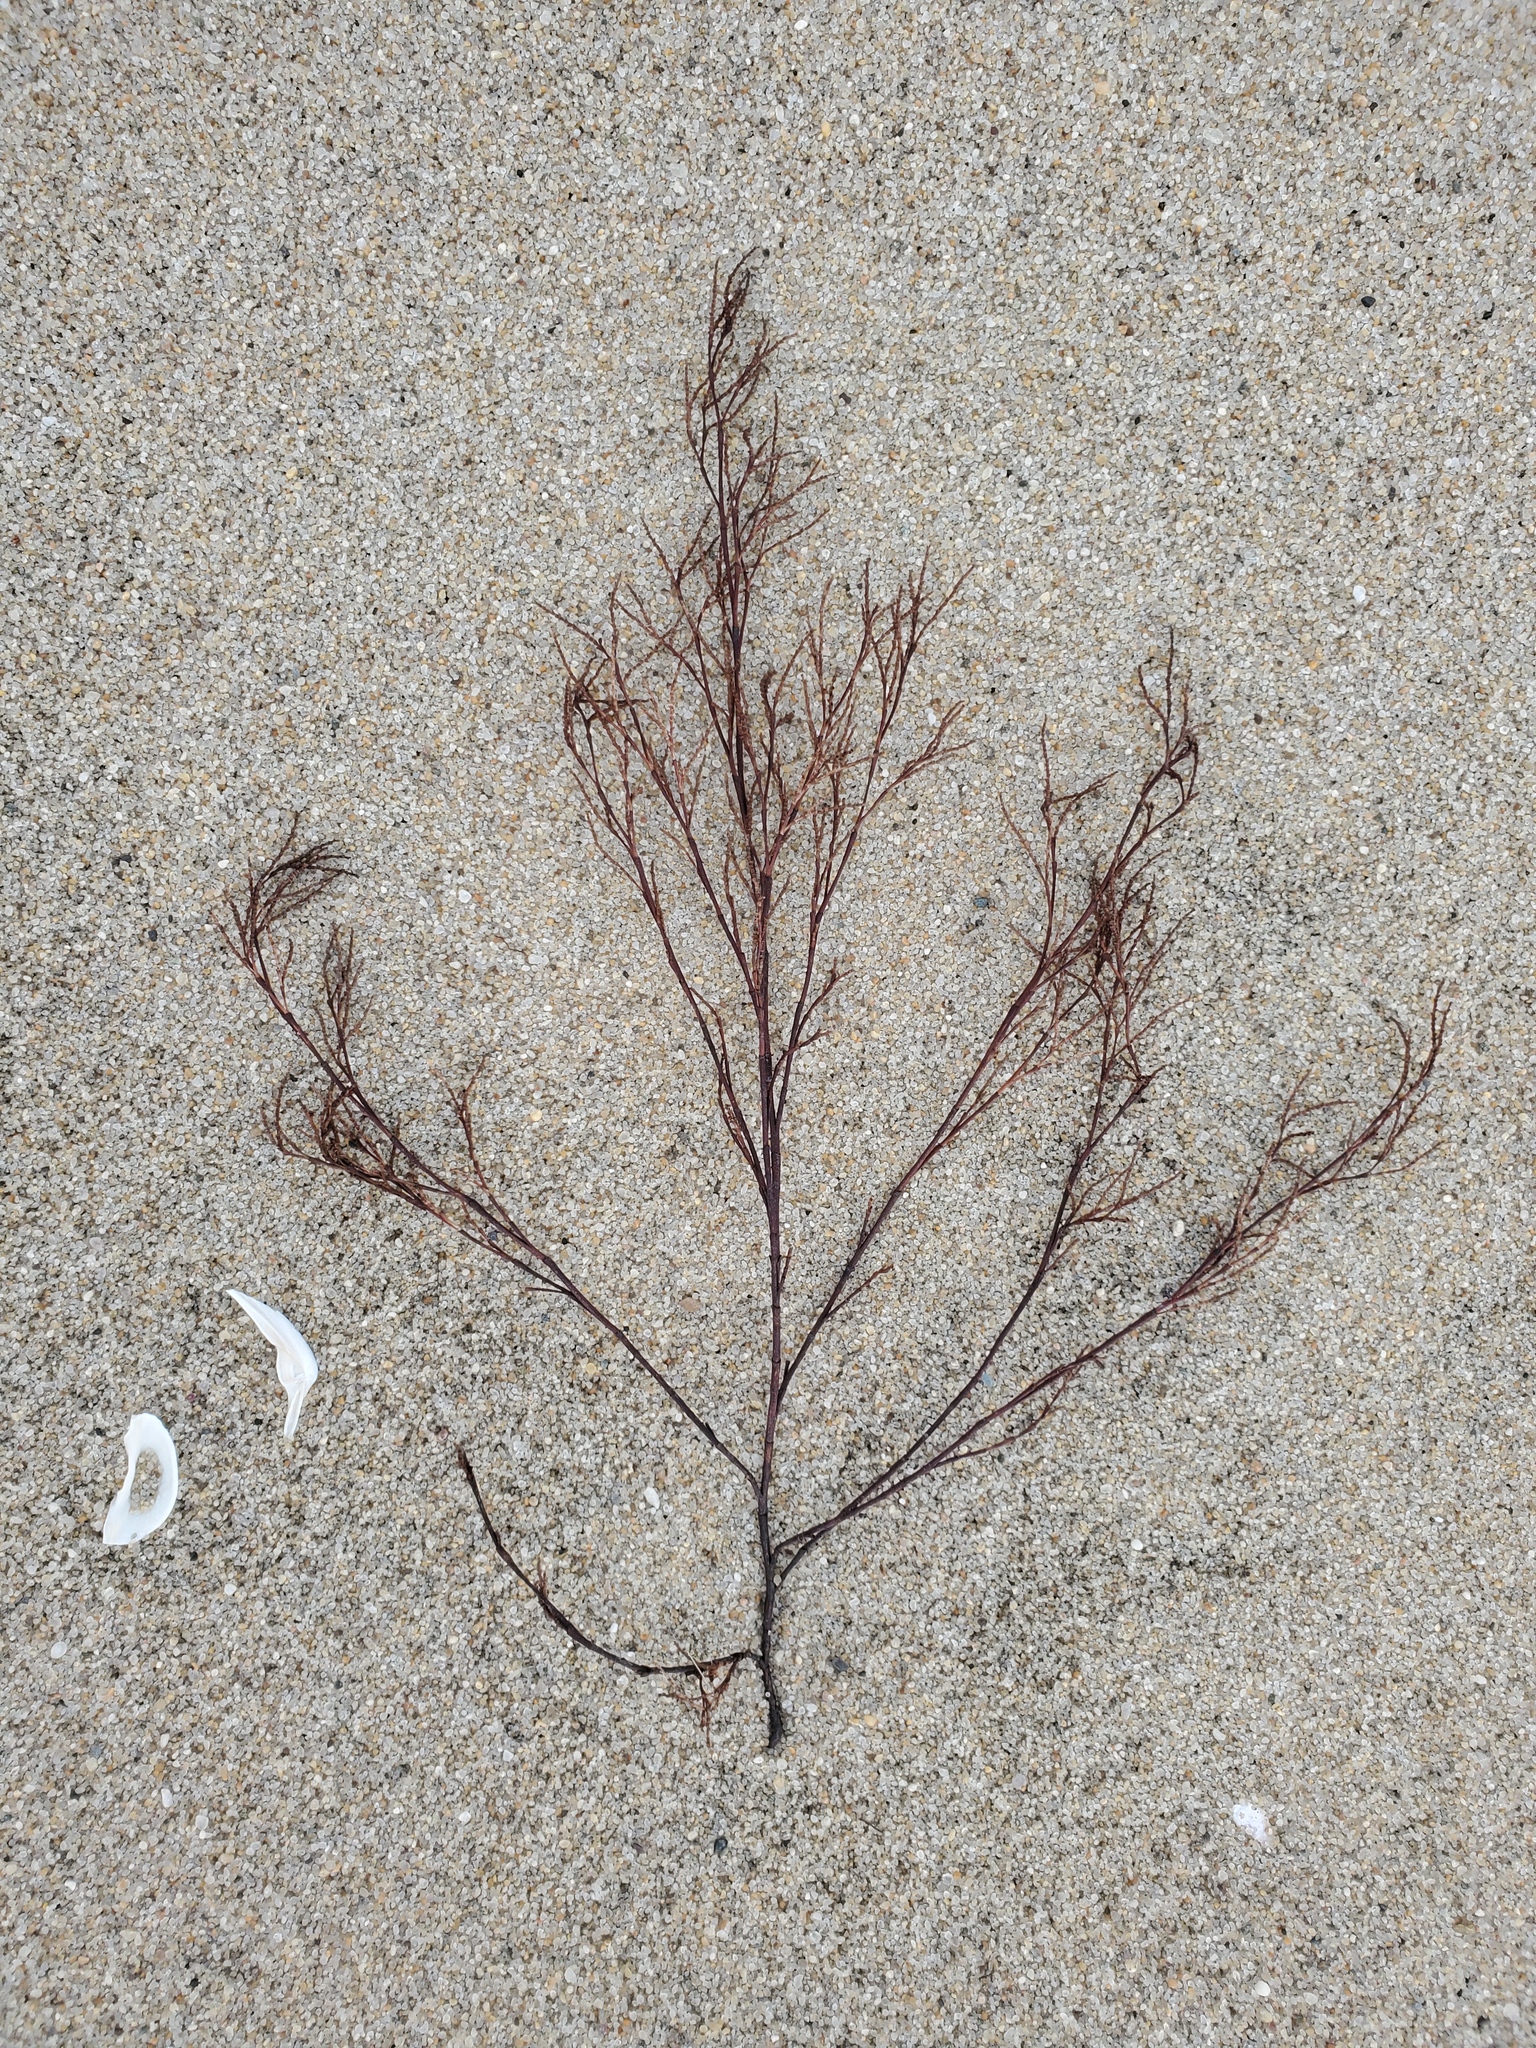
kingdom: Plantae
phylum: Tracheophyta
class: Magnoliopsida
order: Caryophyllales
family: Polygonaceae
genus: Polygonella
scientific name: Polygonella articulata
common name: Coastal jointweed
